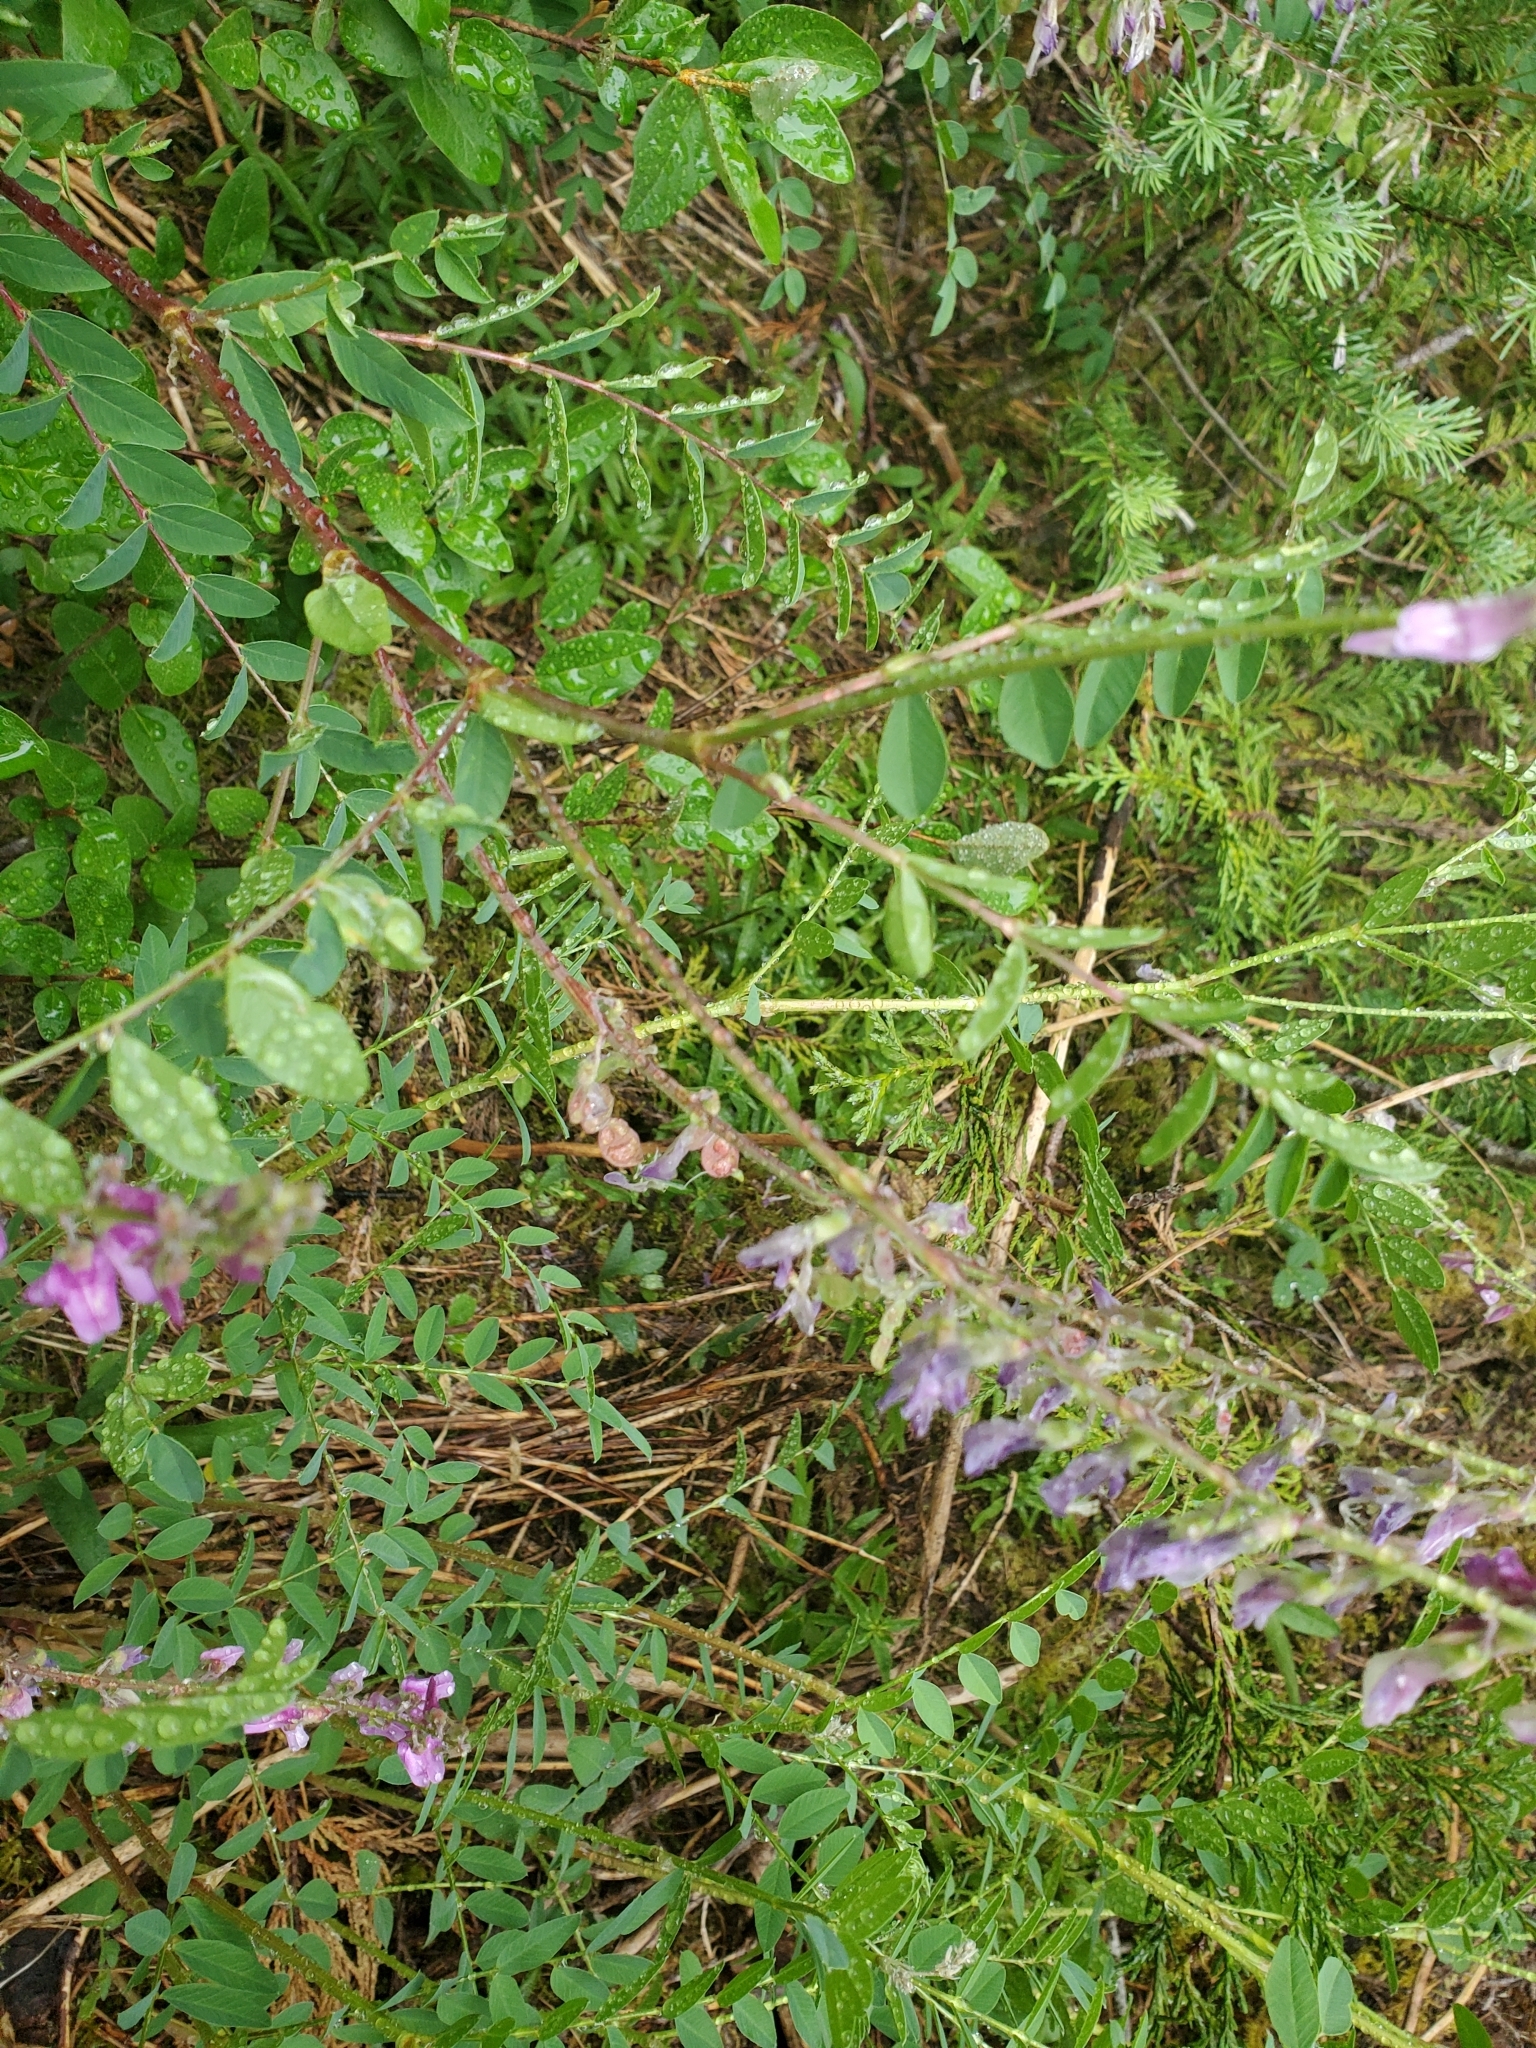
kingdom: Plantae
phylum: Tracheophyta
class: Magnoliopsida
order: Fabales
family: Fabaceae
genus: Hedysarum
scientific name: Hedysarum occidentale
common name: Western hedysarum
